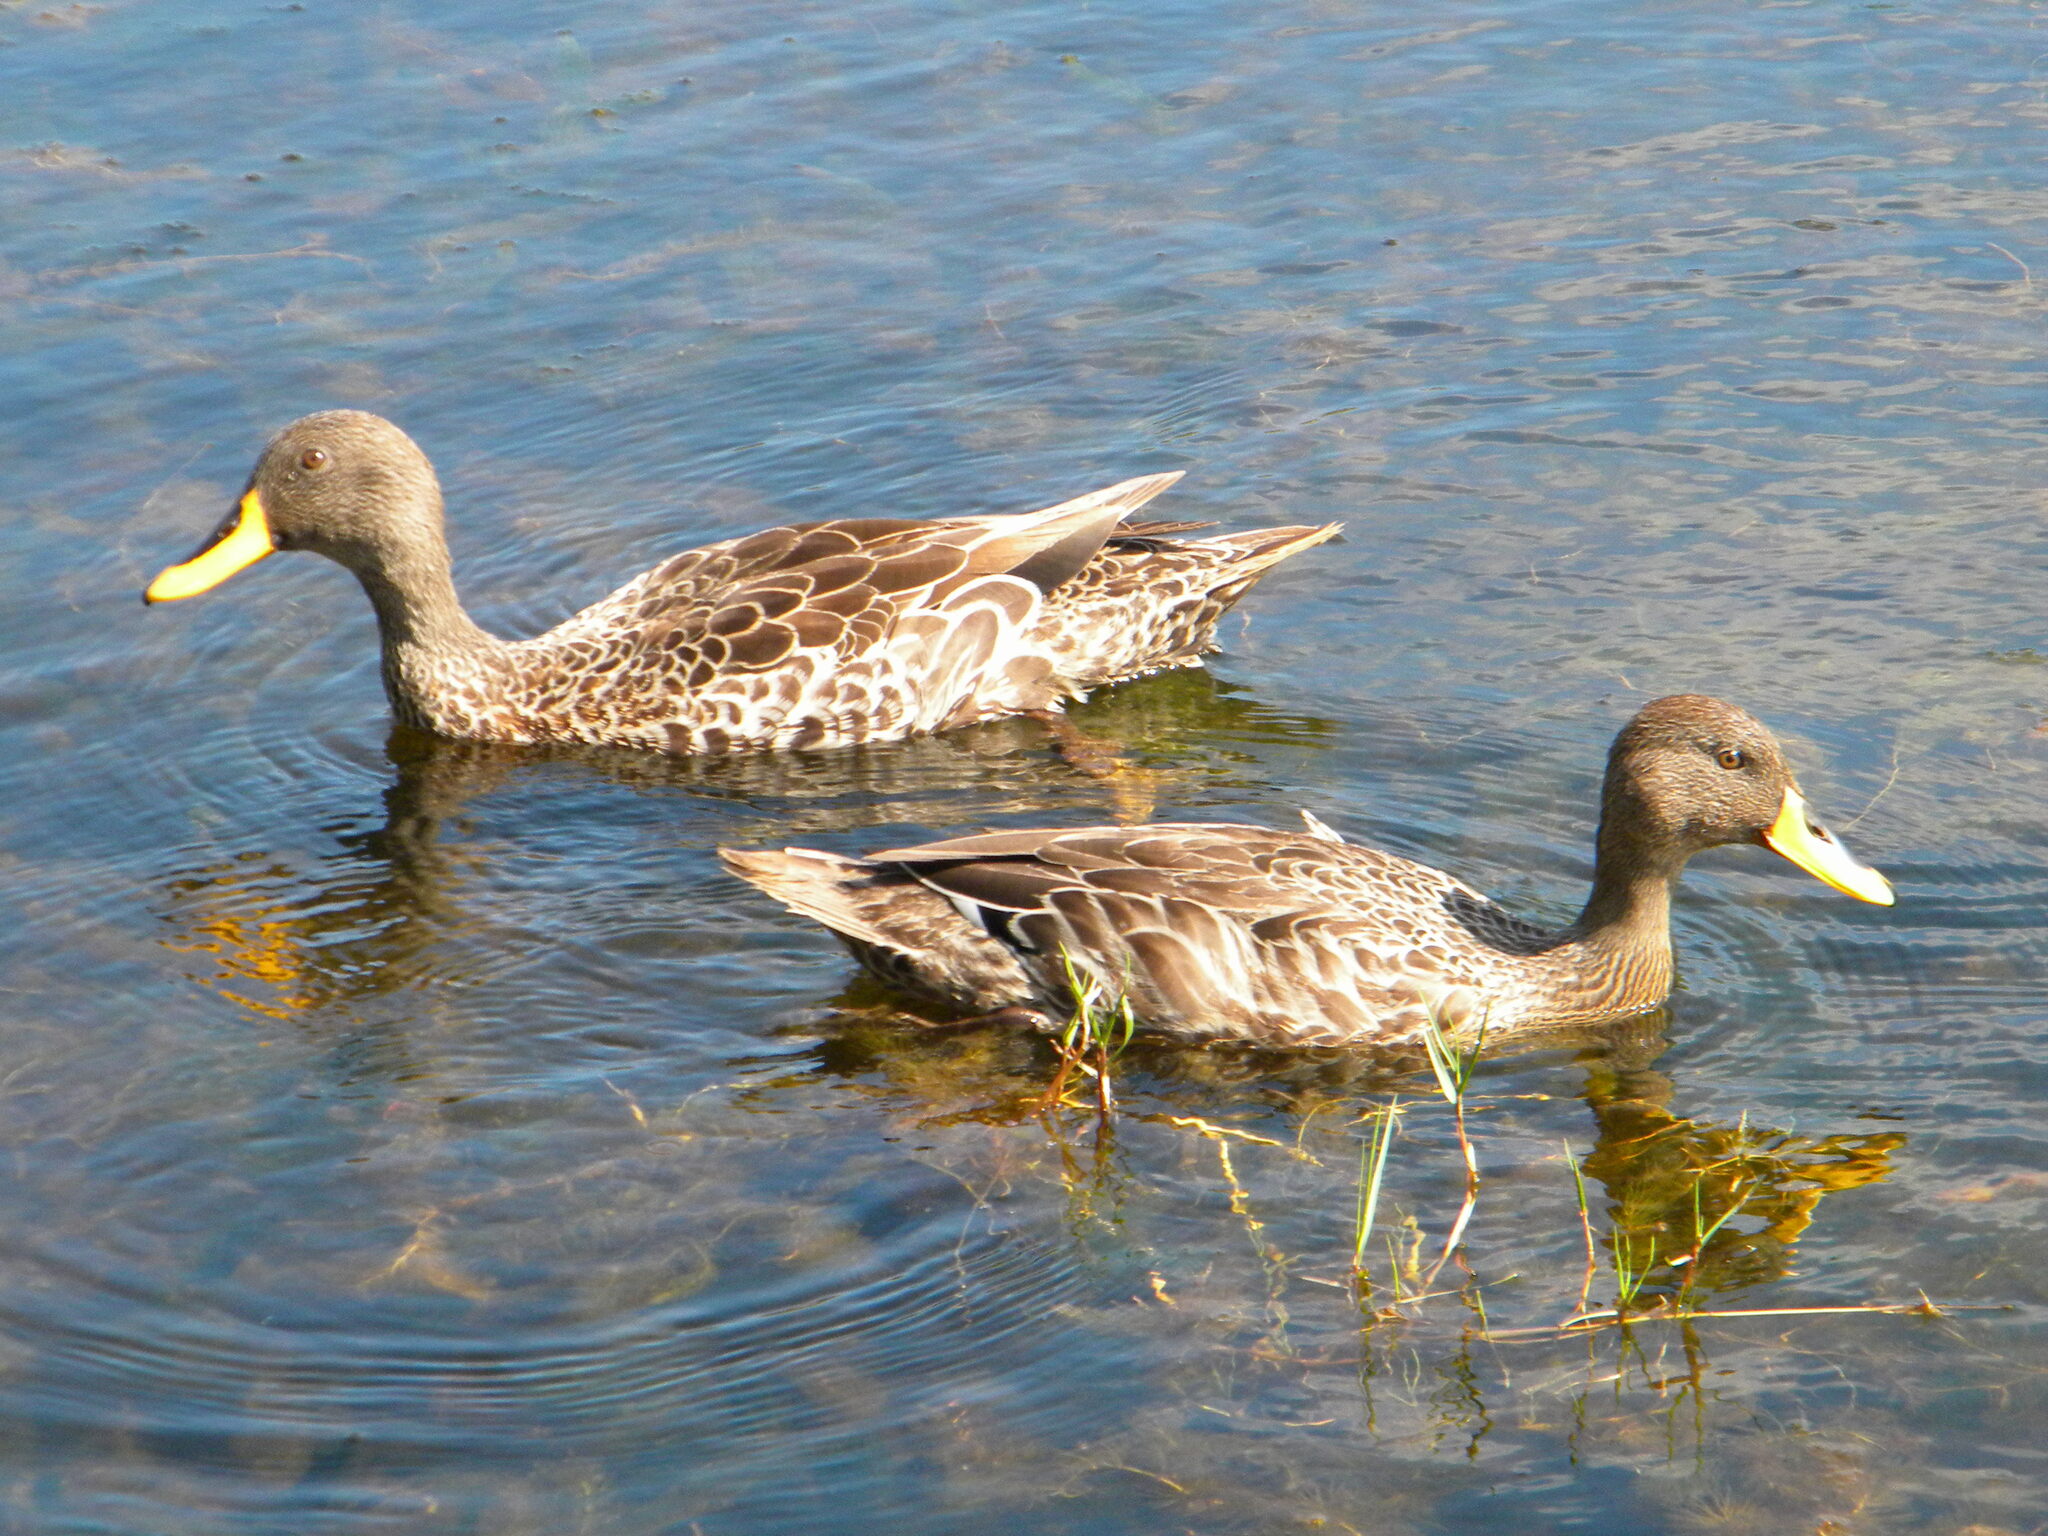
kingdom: Animalia
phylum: Chordata
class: Aves
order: Anseriformes
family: Anatidae
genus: Anas
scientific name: Anas undulata
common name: Yellow-billed duck
